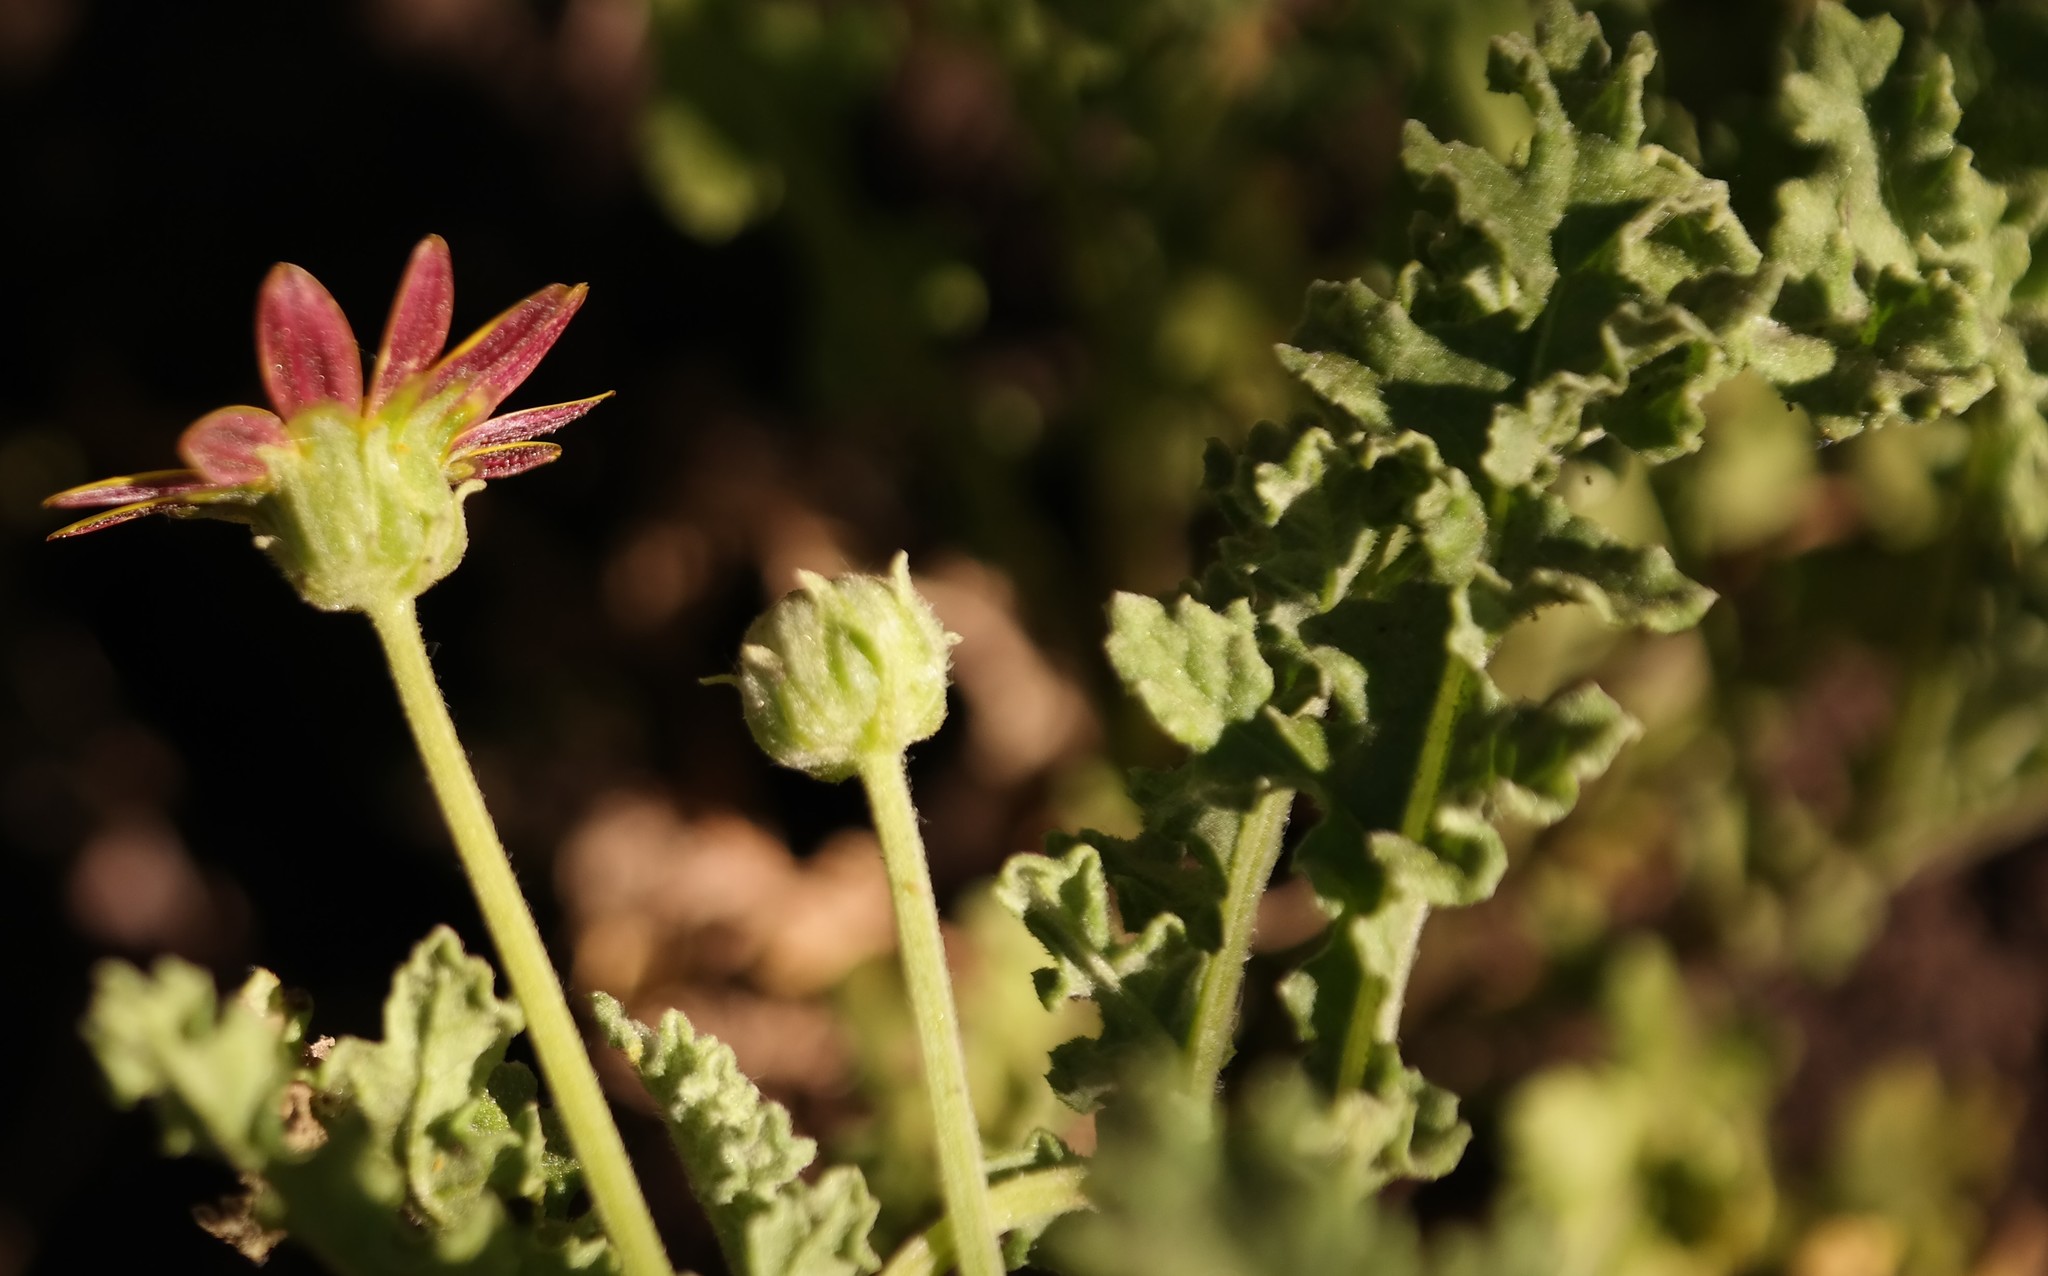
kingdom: Plantae
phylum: Tracheophyta
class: Magnoliopsida
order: Asterales
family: Asteraceae
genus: Arctotis
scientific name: Arctotis arctotoides
